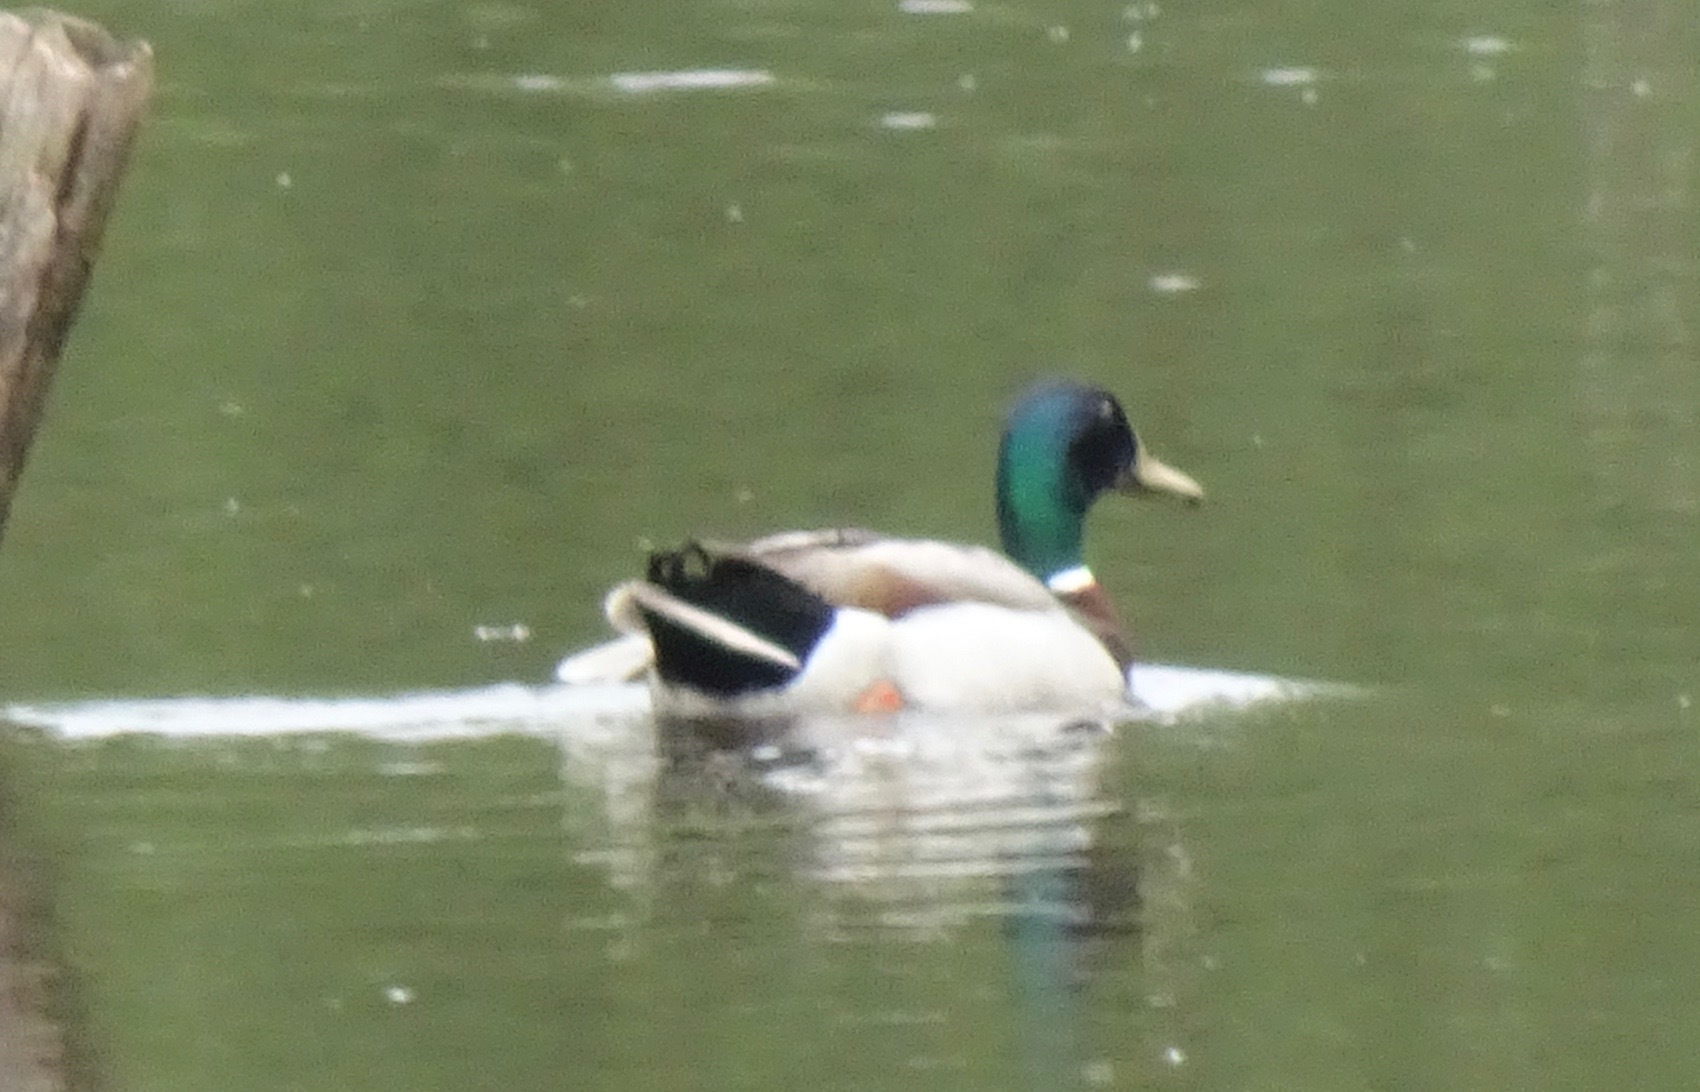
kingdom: Animalia
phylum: Chordata
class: Aves
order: Anseriformes
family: Anatidae
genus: Anas
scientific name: Anas platyrhynchos
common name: Mallard
